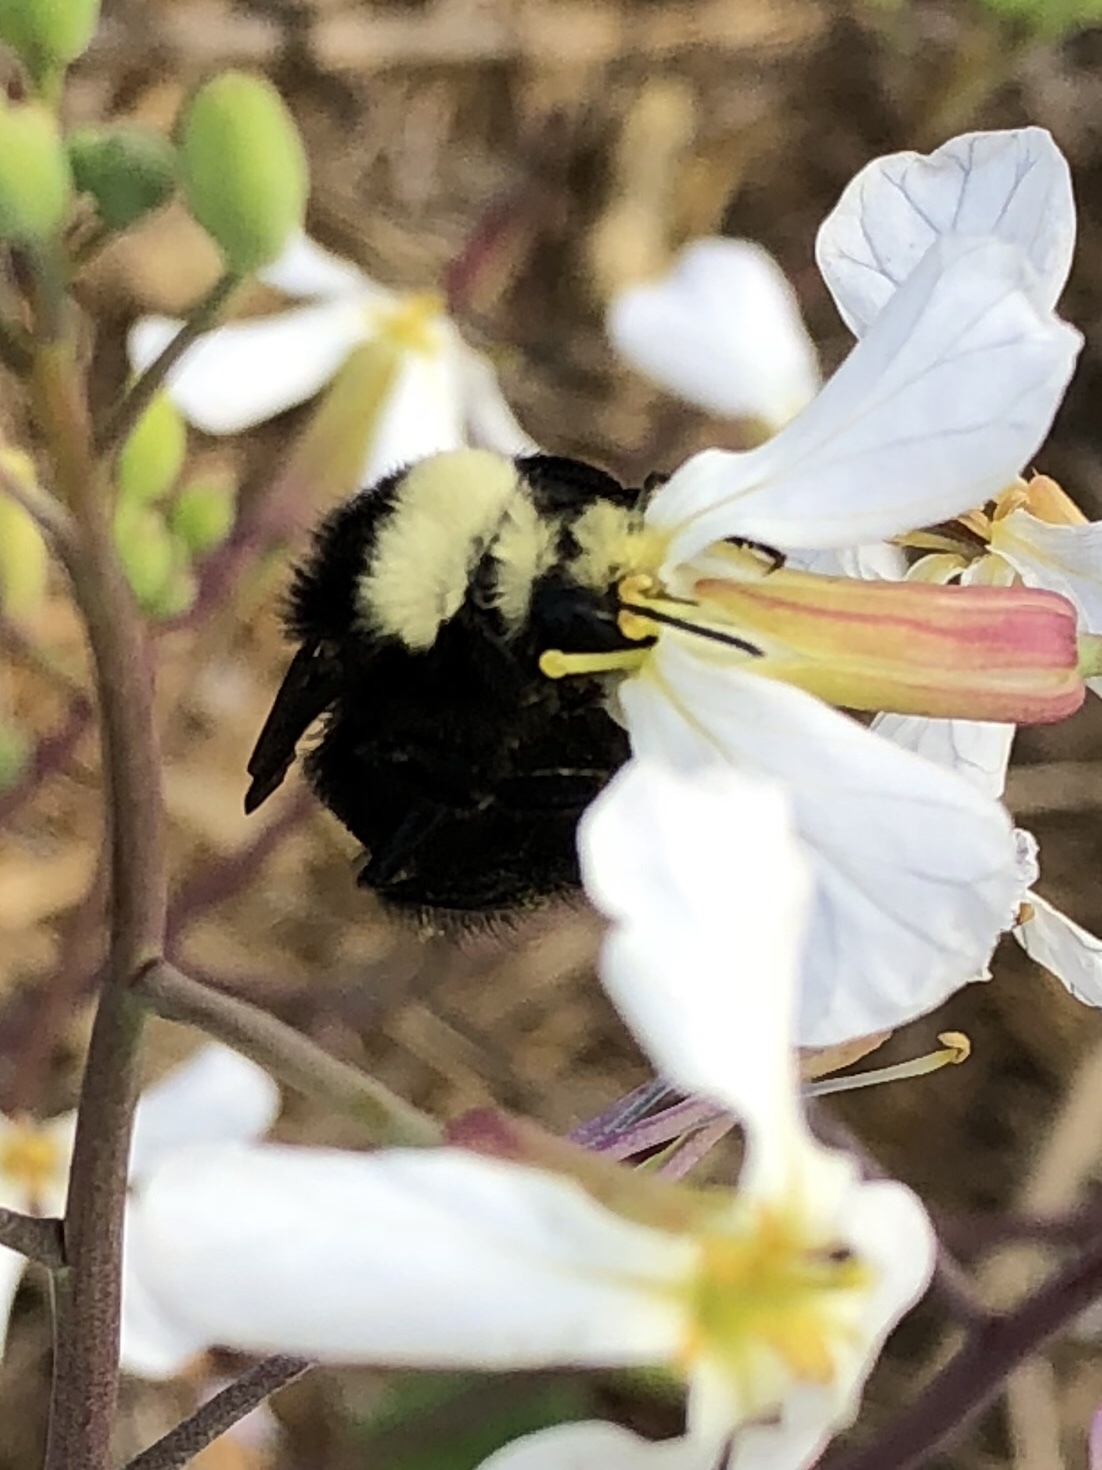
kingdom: Animalia
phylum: Arthropoda
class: Insecta
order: Hymenoptera
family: Apidae
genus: Bombus
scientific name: Bombus vosnesenskii
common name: Vosnesensky bumble bee
